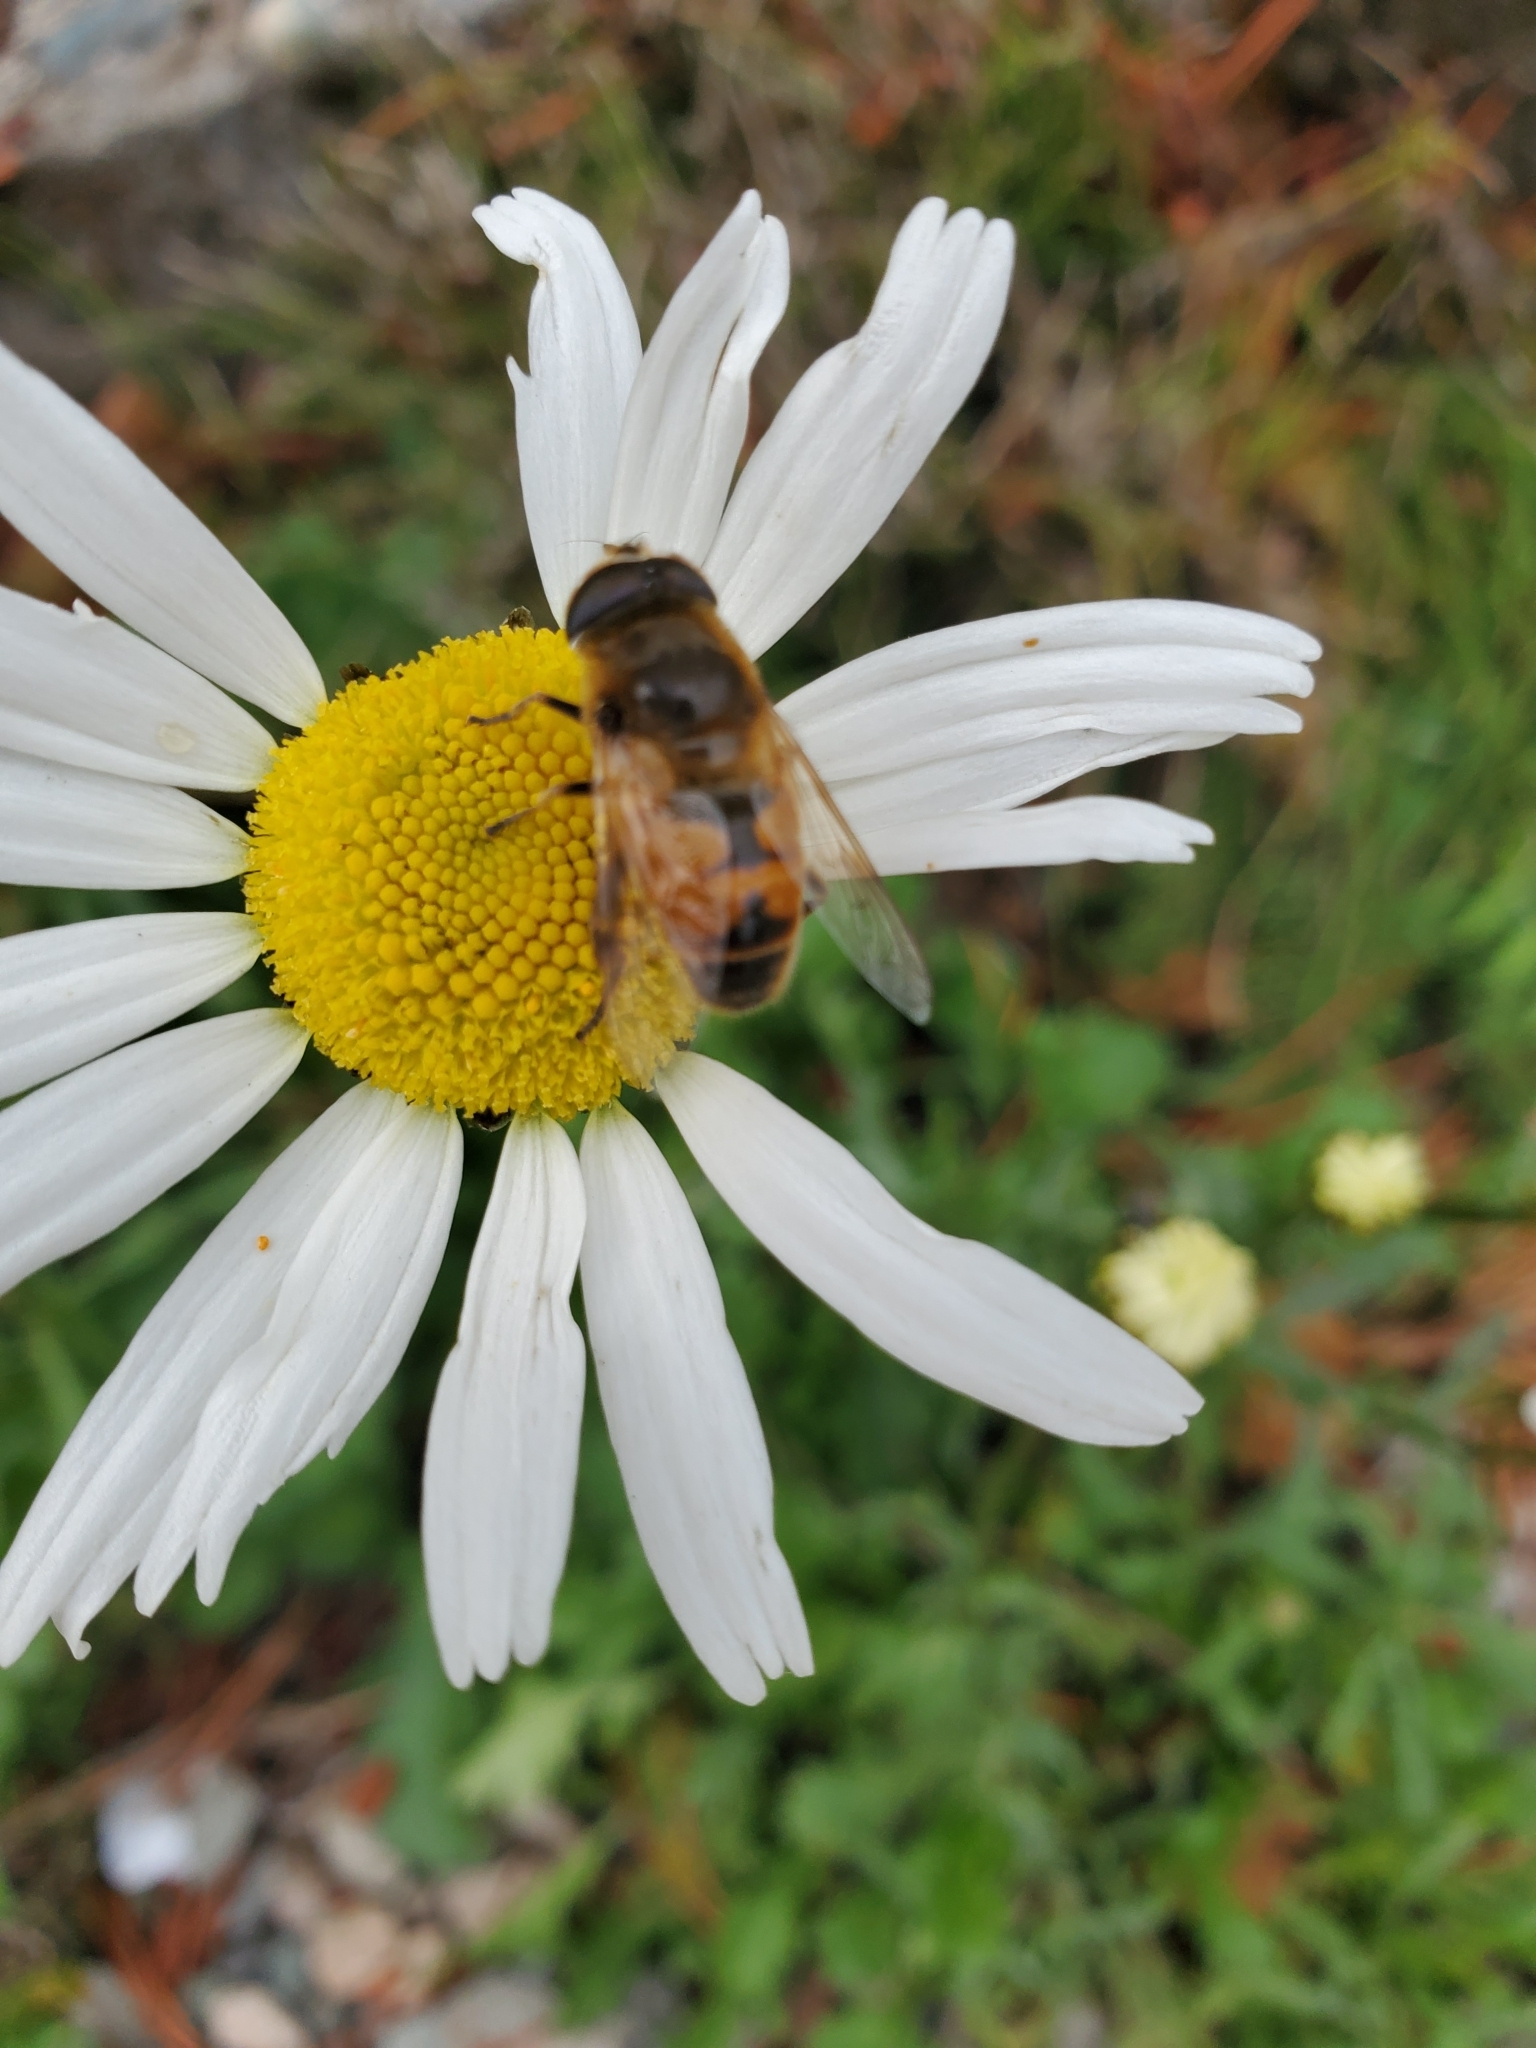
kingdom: Animalia
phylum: Arthropoda
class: Insecta
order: Diptera
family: Syrphidae
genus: Eristalis
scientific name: Eristalis tenax
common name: Drone fly
